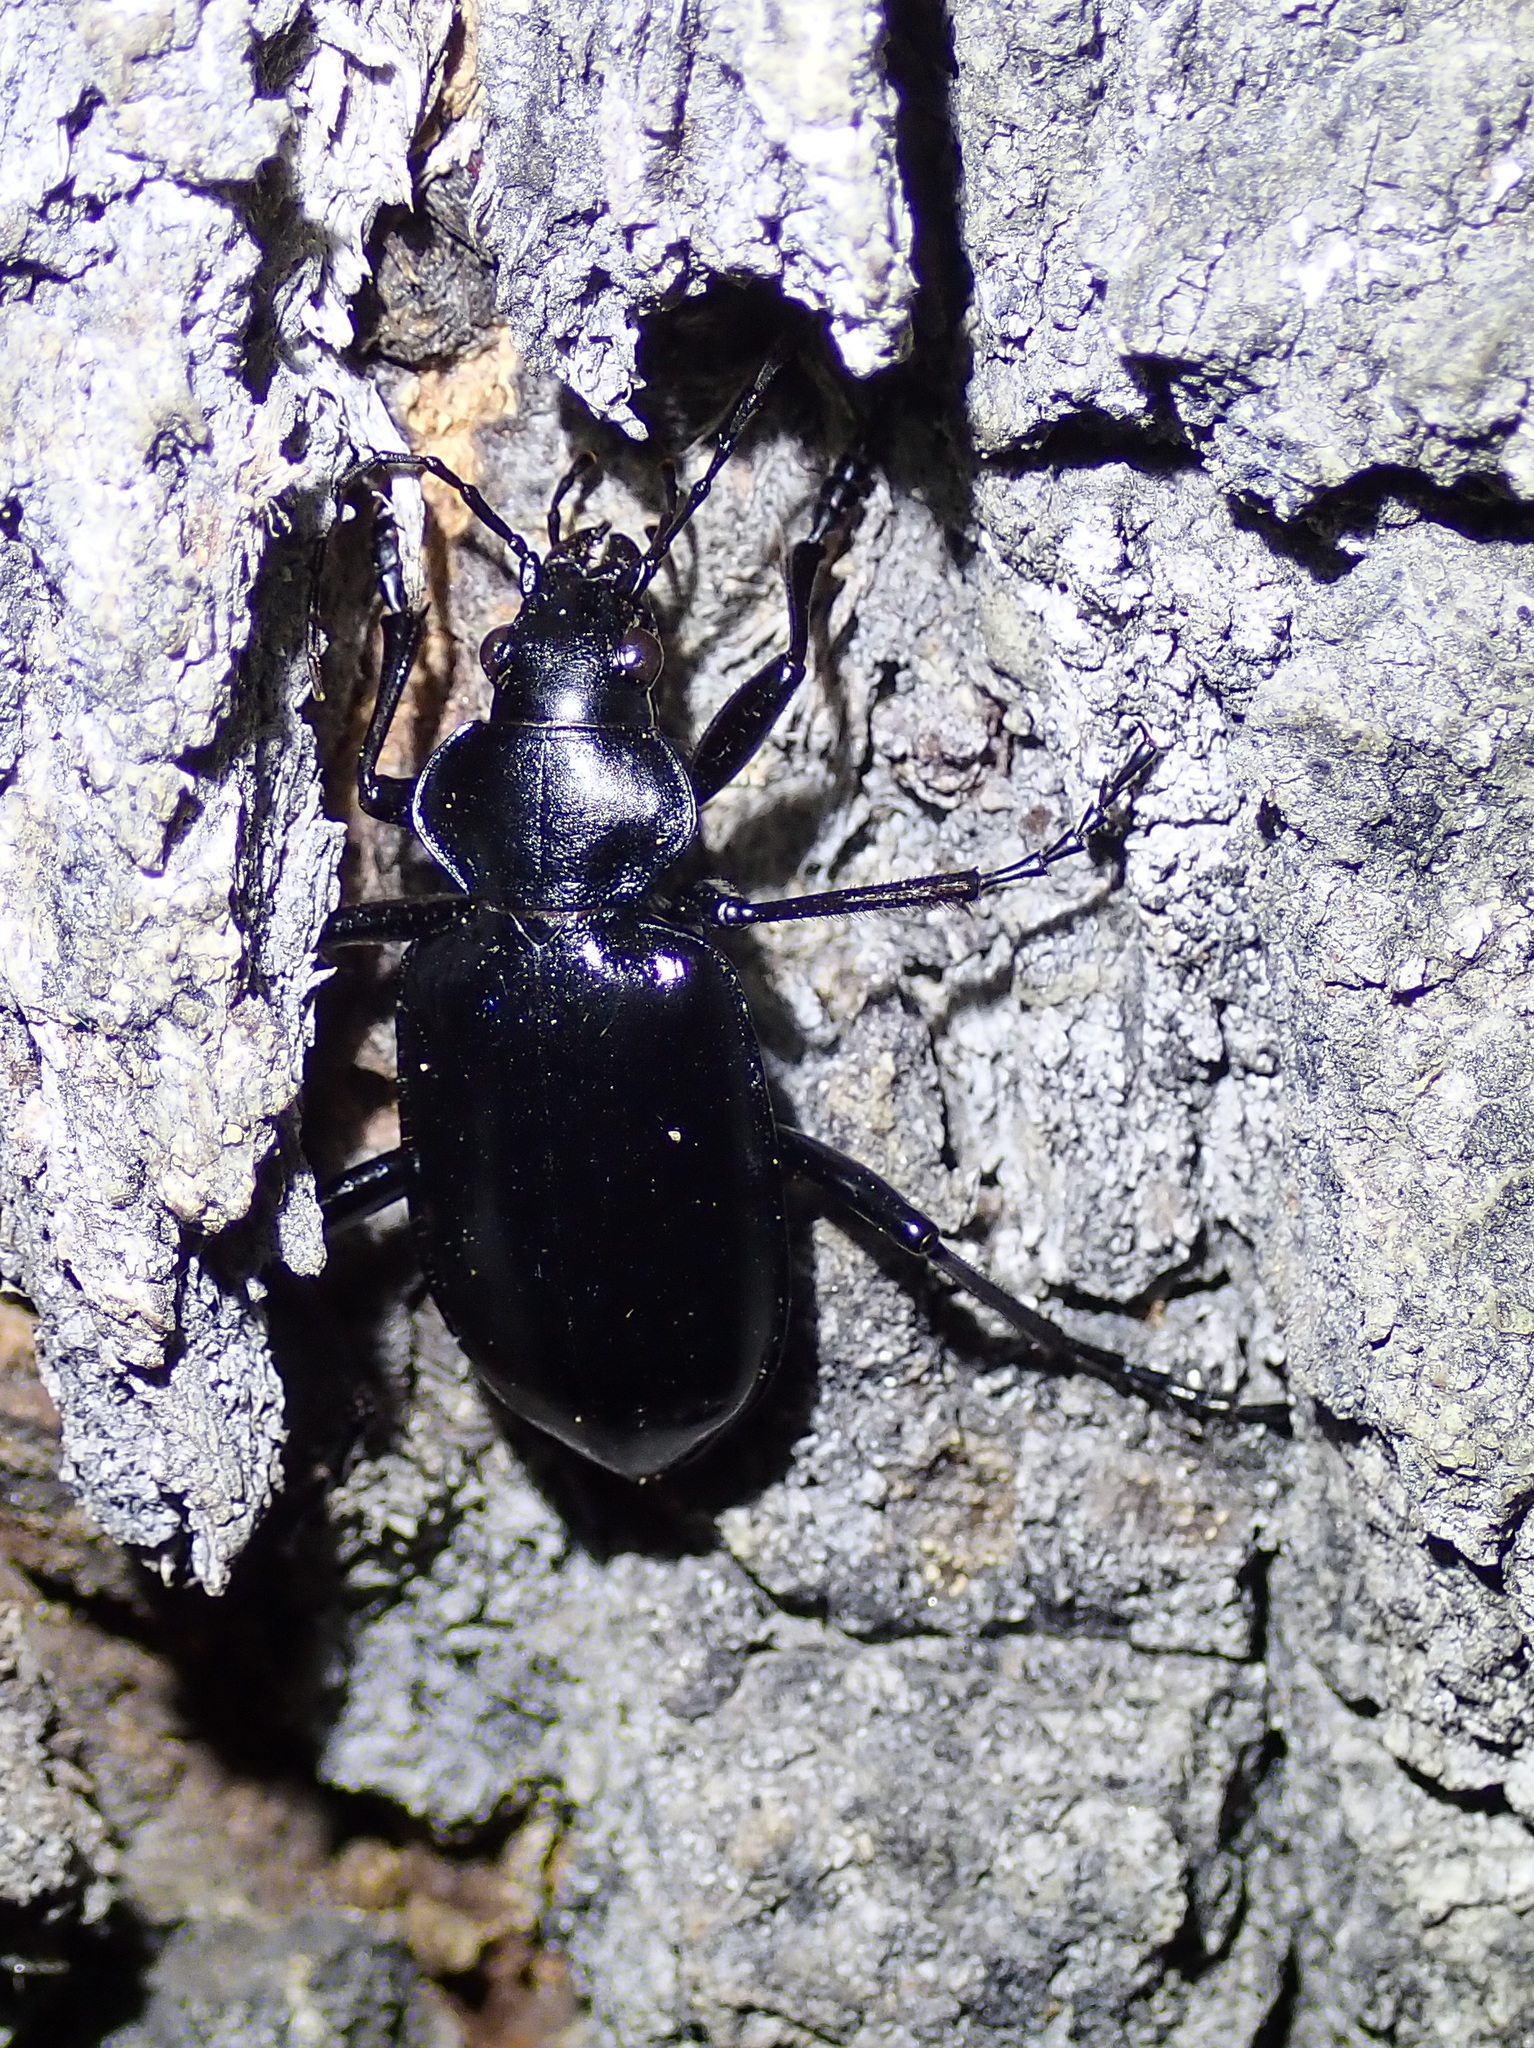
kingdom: Animalia
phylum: Arthropoda
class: Insecta
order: Coleoptera
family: Carabidae
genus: Calosoma
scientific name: Calosoma peregrinator
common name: Ground beetle
